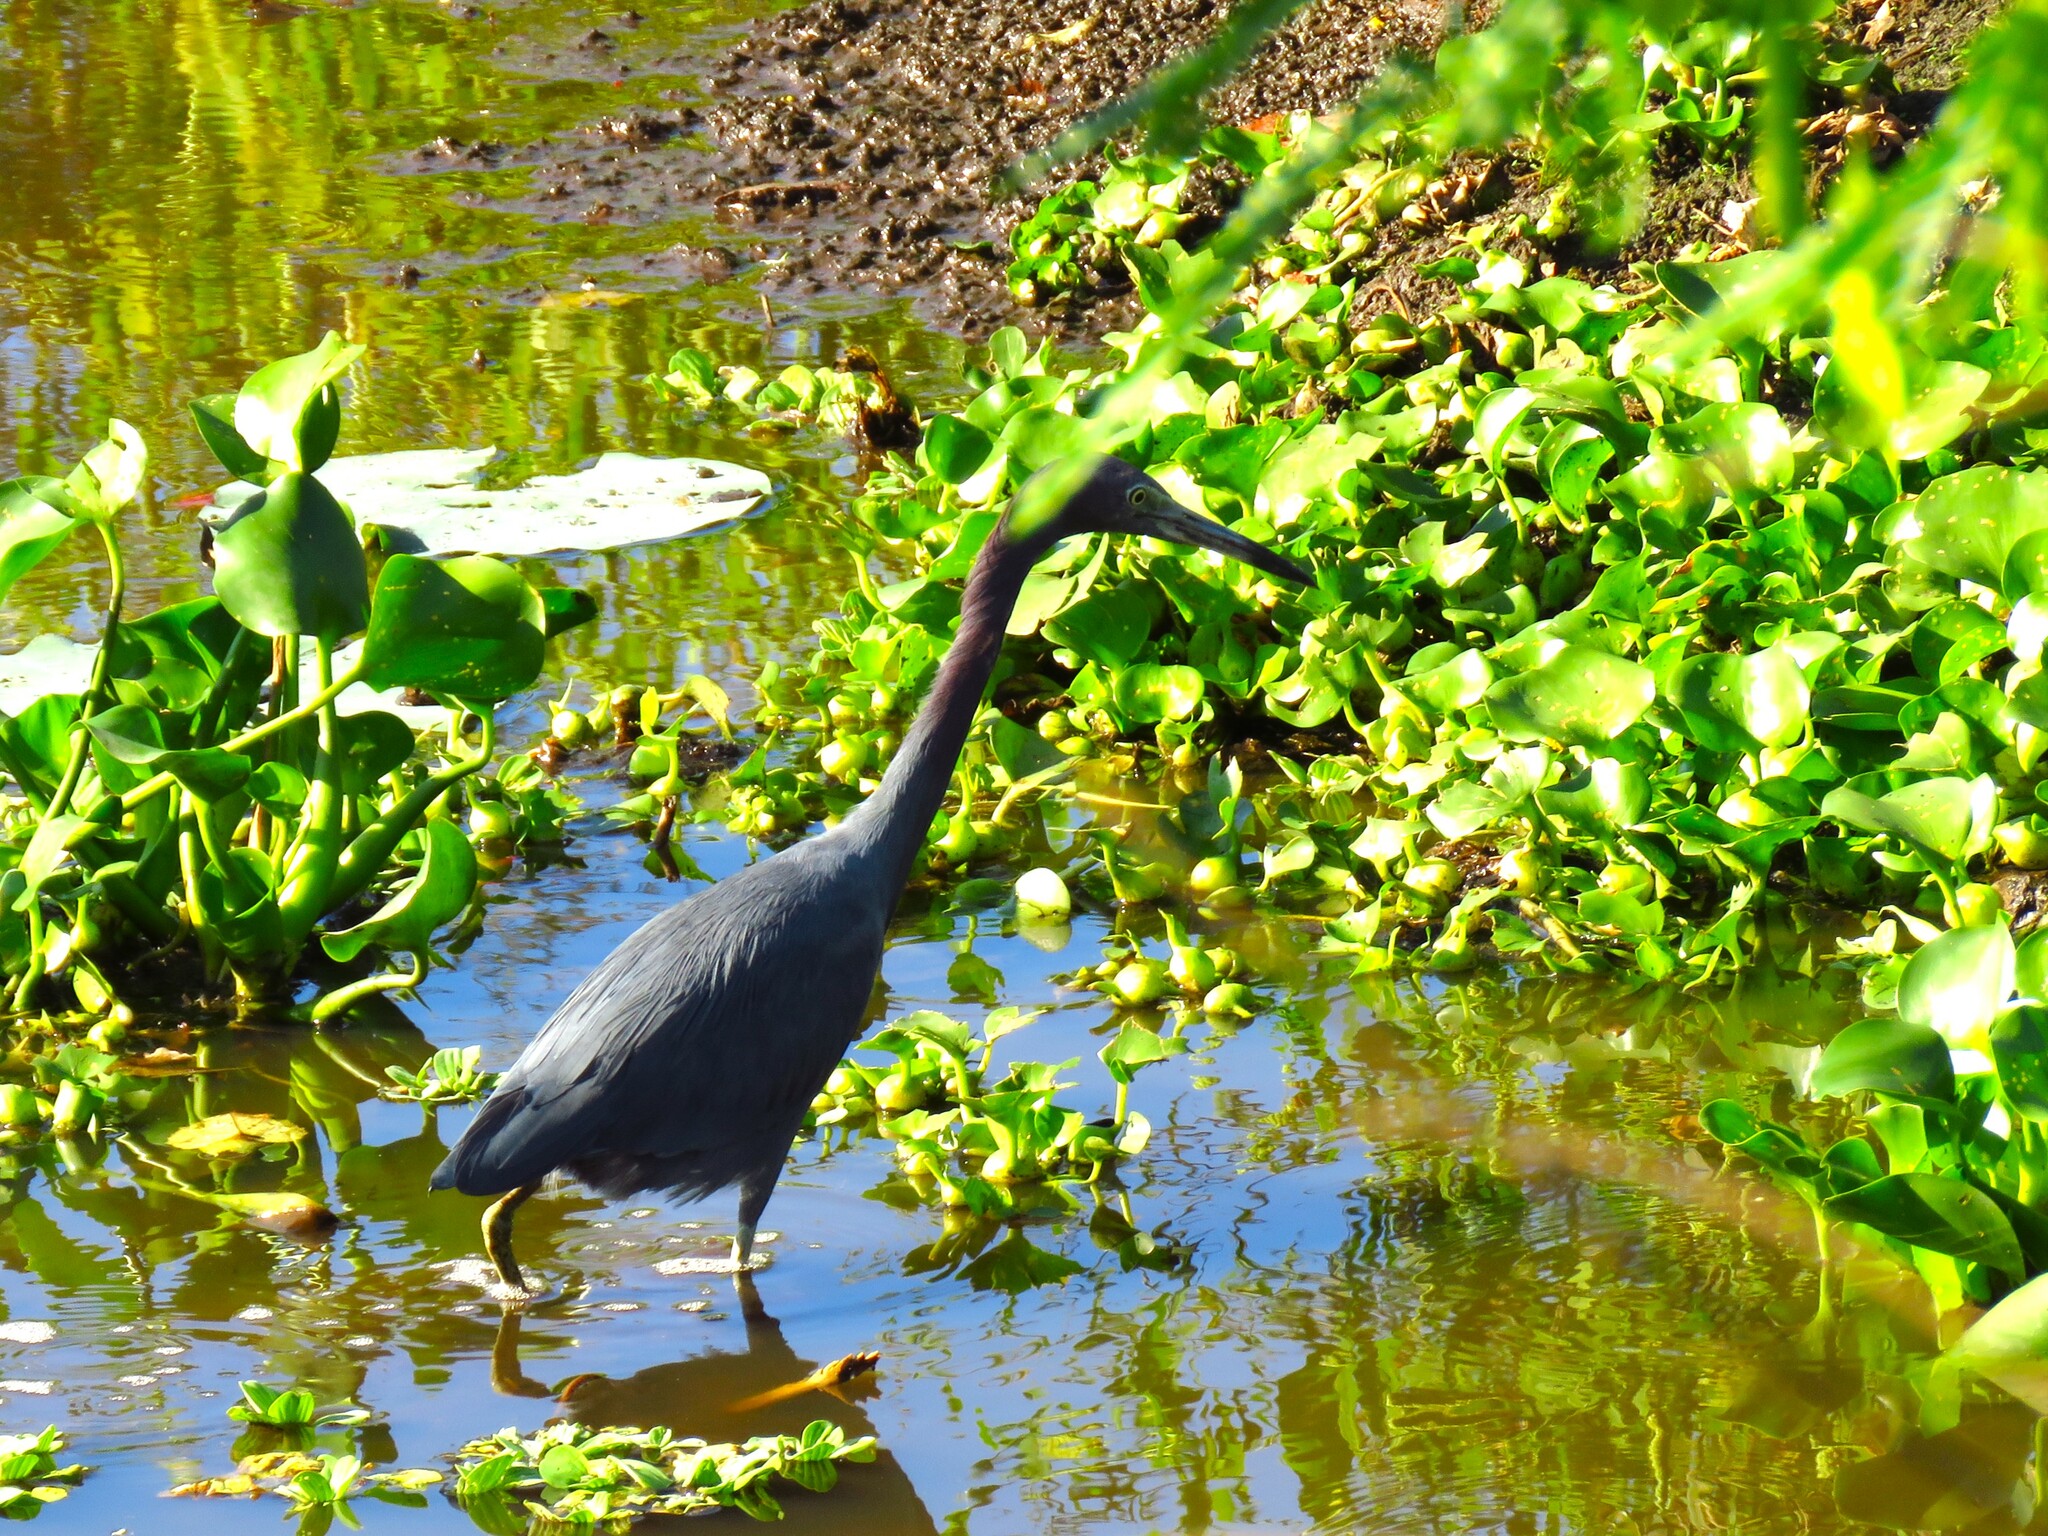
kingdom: Animalia
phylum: Chordata
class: Aves
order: Pelecaniformes
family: Ardeidae
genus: Egretta
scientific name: Egretta caerulea
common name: Little blue heron
